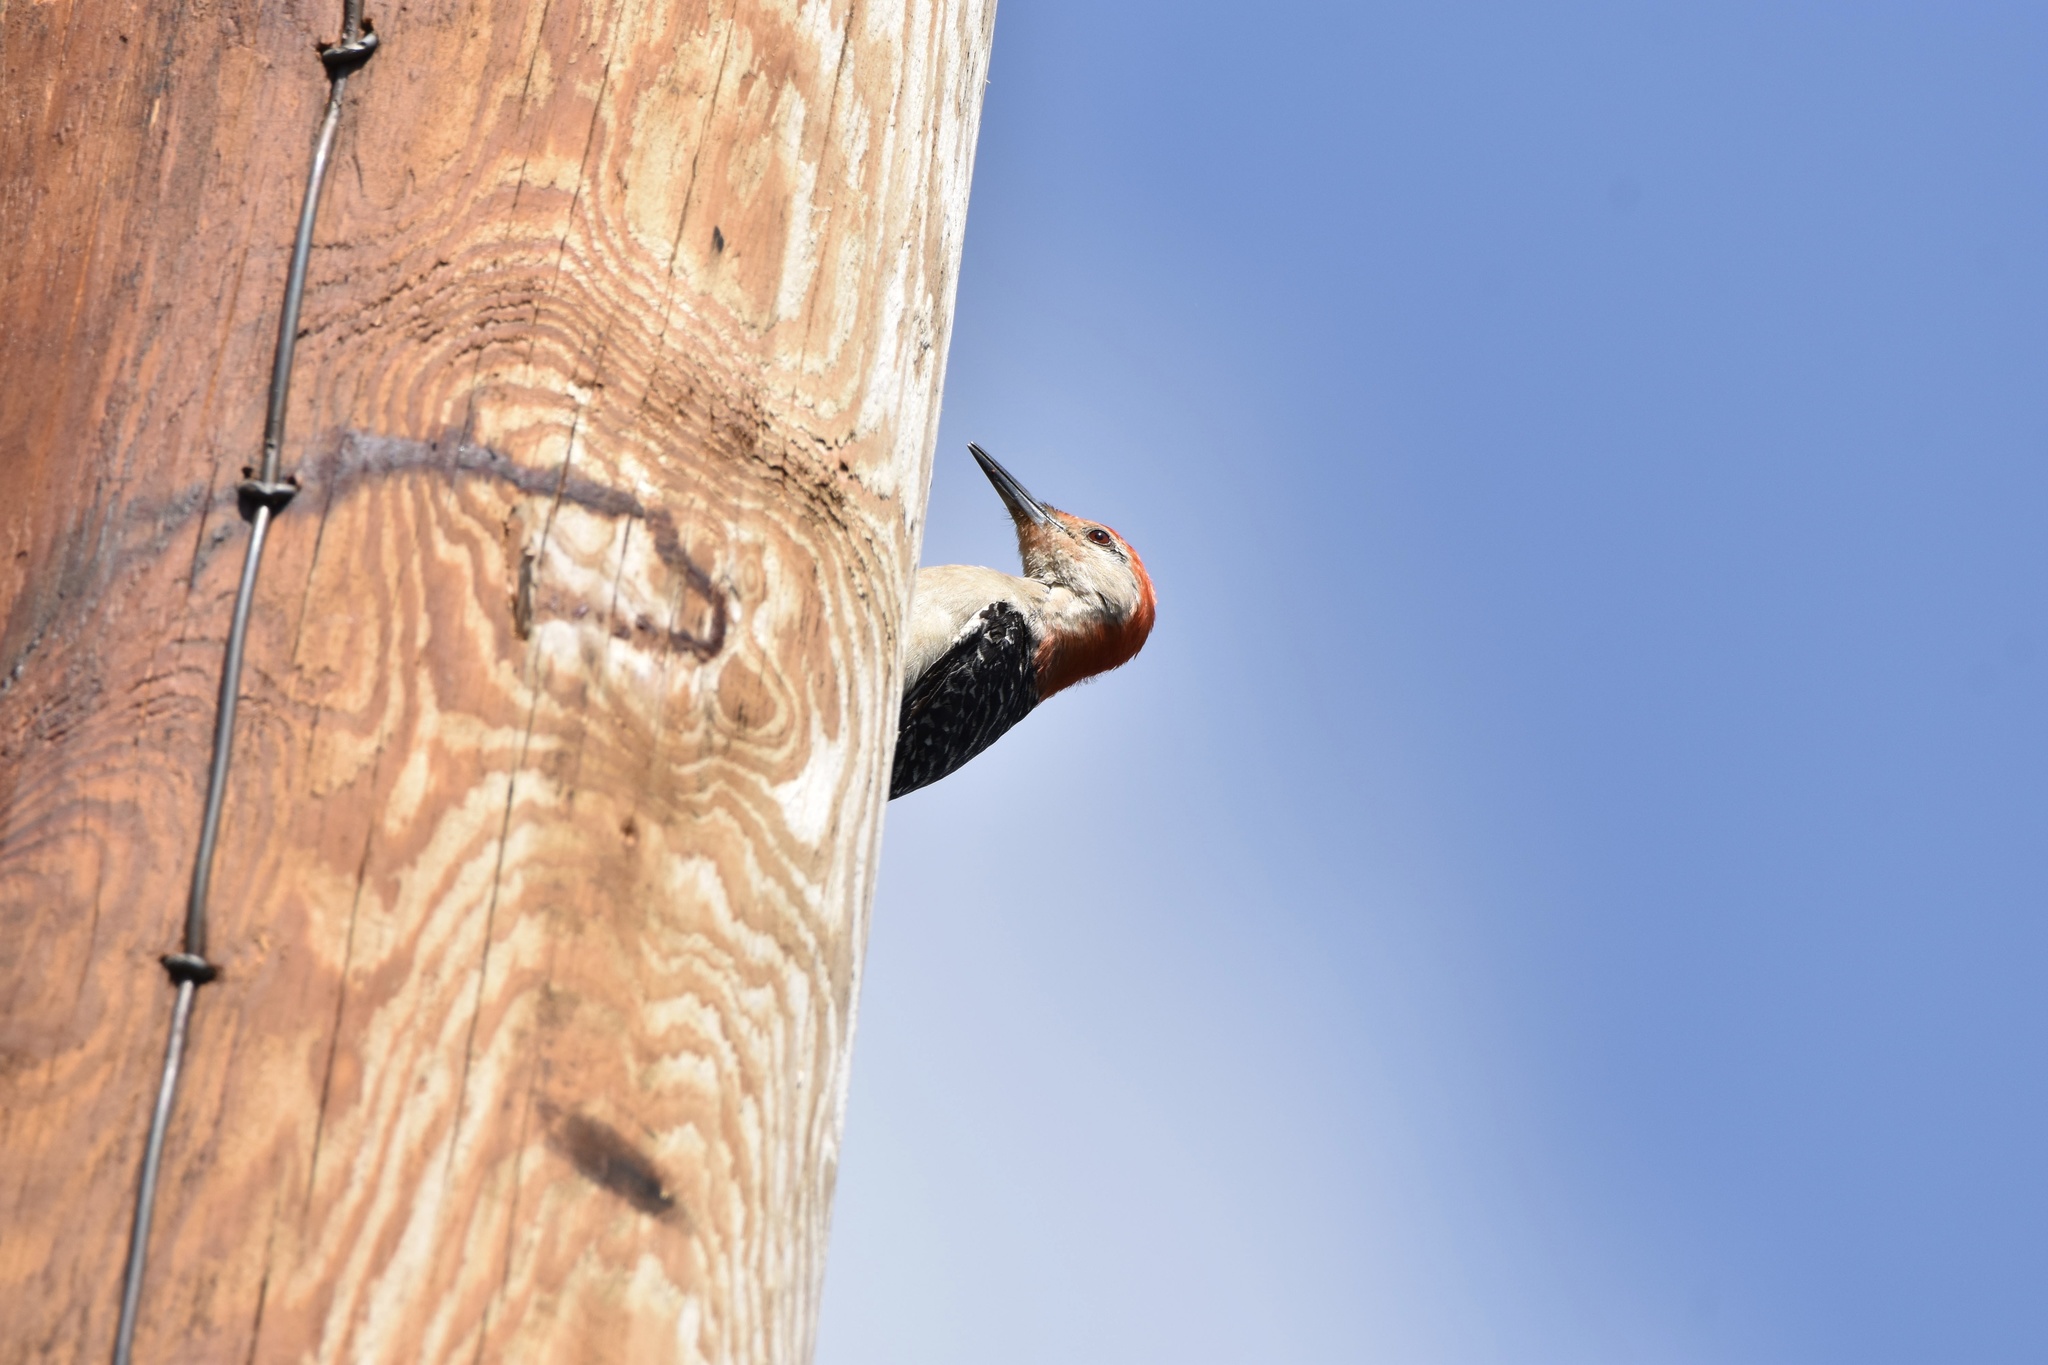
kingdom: Animalia
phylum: Chordata
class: Aves
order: Piciformes
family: Picidae
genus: Melanerpes
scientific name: Melanerpes carolinus
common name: Red-bellied woodpecker
